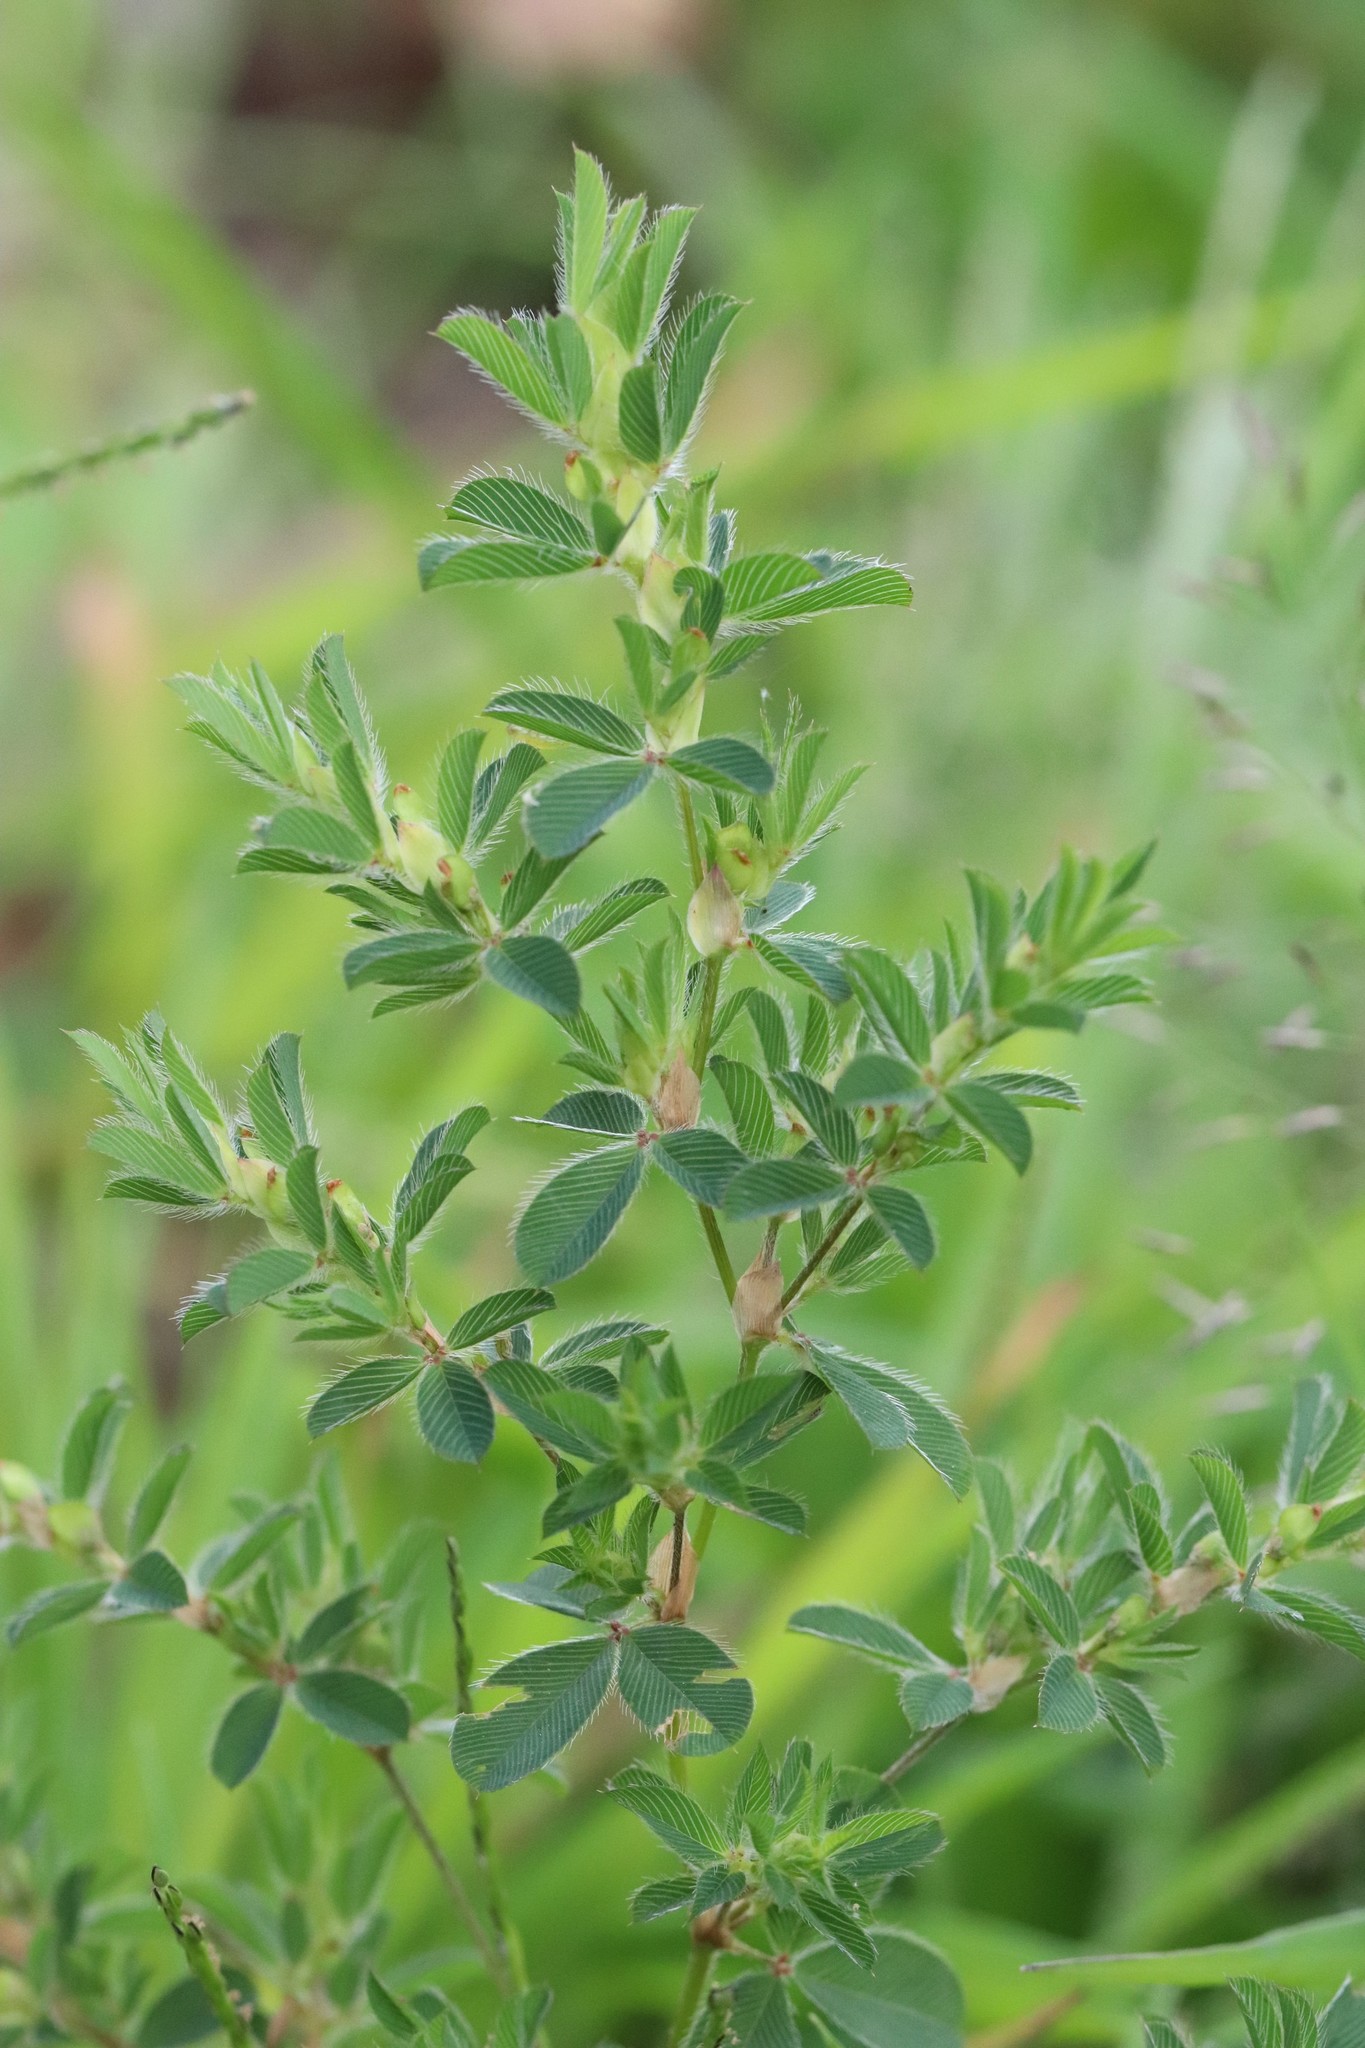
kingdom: Plantae
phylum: Tracheophyta
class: Magnoliopsida
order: Fabales
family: Fabaceae
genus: Kummerowia
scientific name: Kummerowia stipulacea
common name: Korean clover
